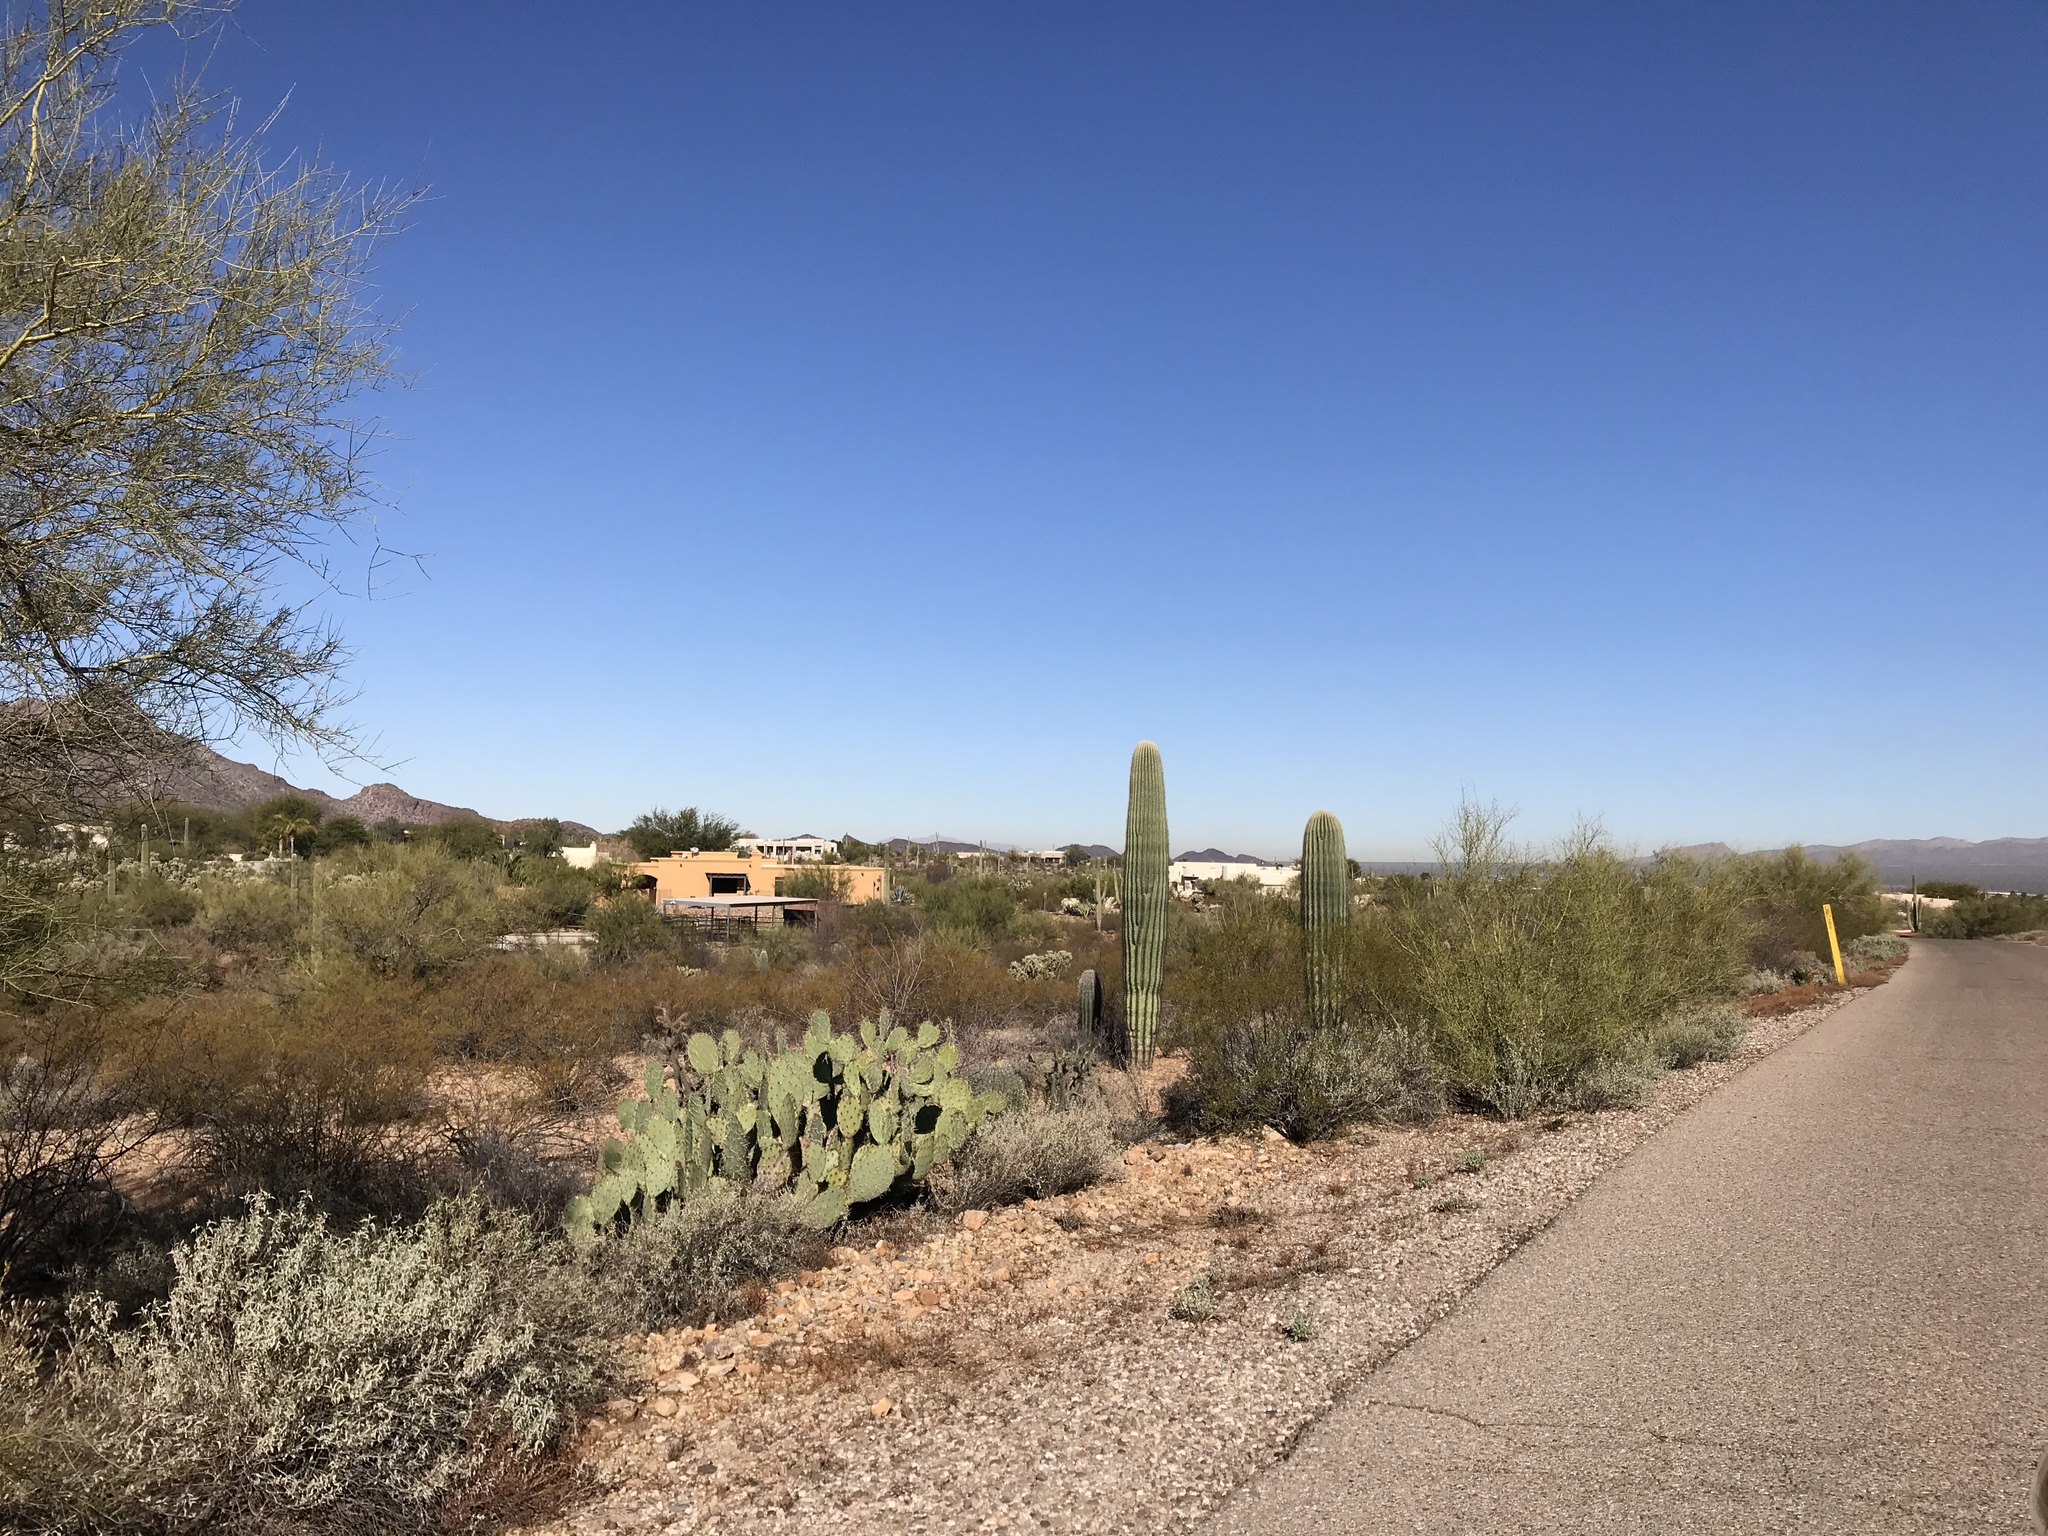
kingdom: Plantae
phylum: Tracheophyta
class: Magnoliopsida
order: Caryophyllales
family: Cactaceae
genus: Carnegiea
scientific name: Carnegiea gigantea
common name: Saguaro
